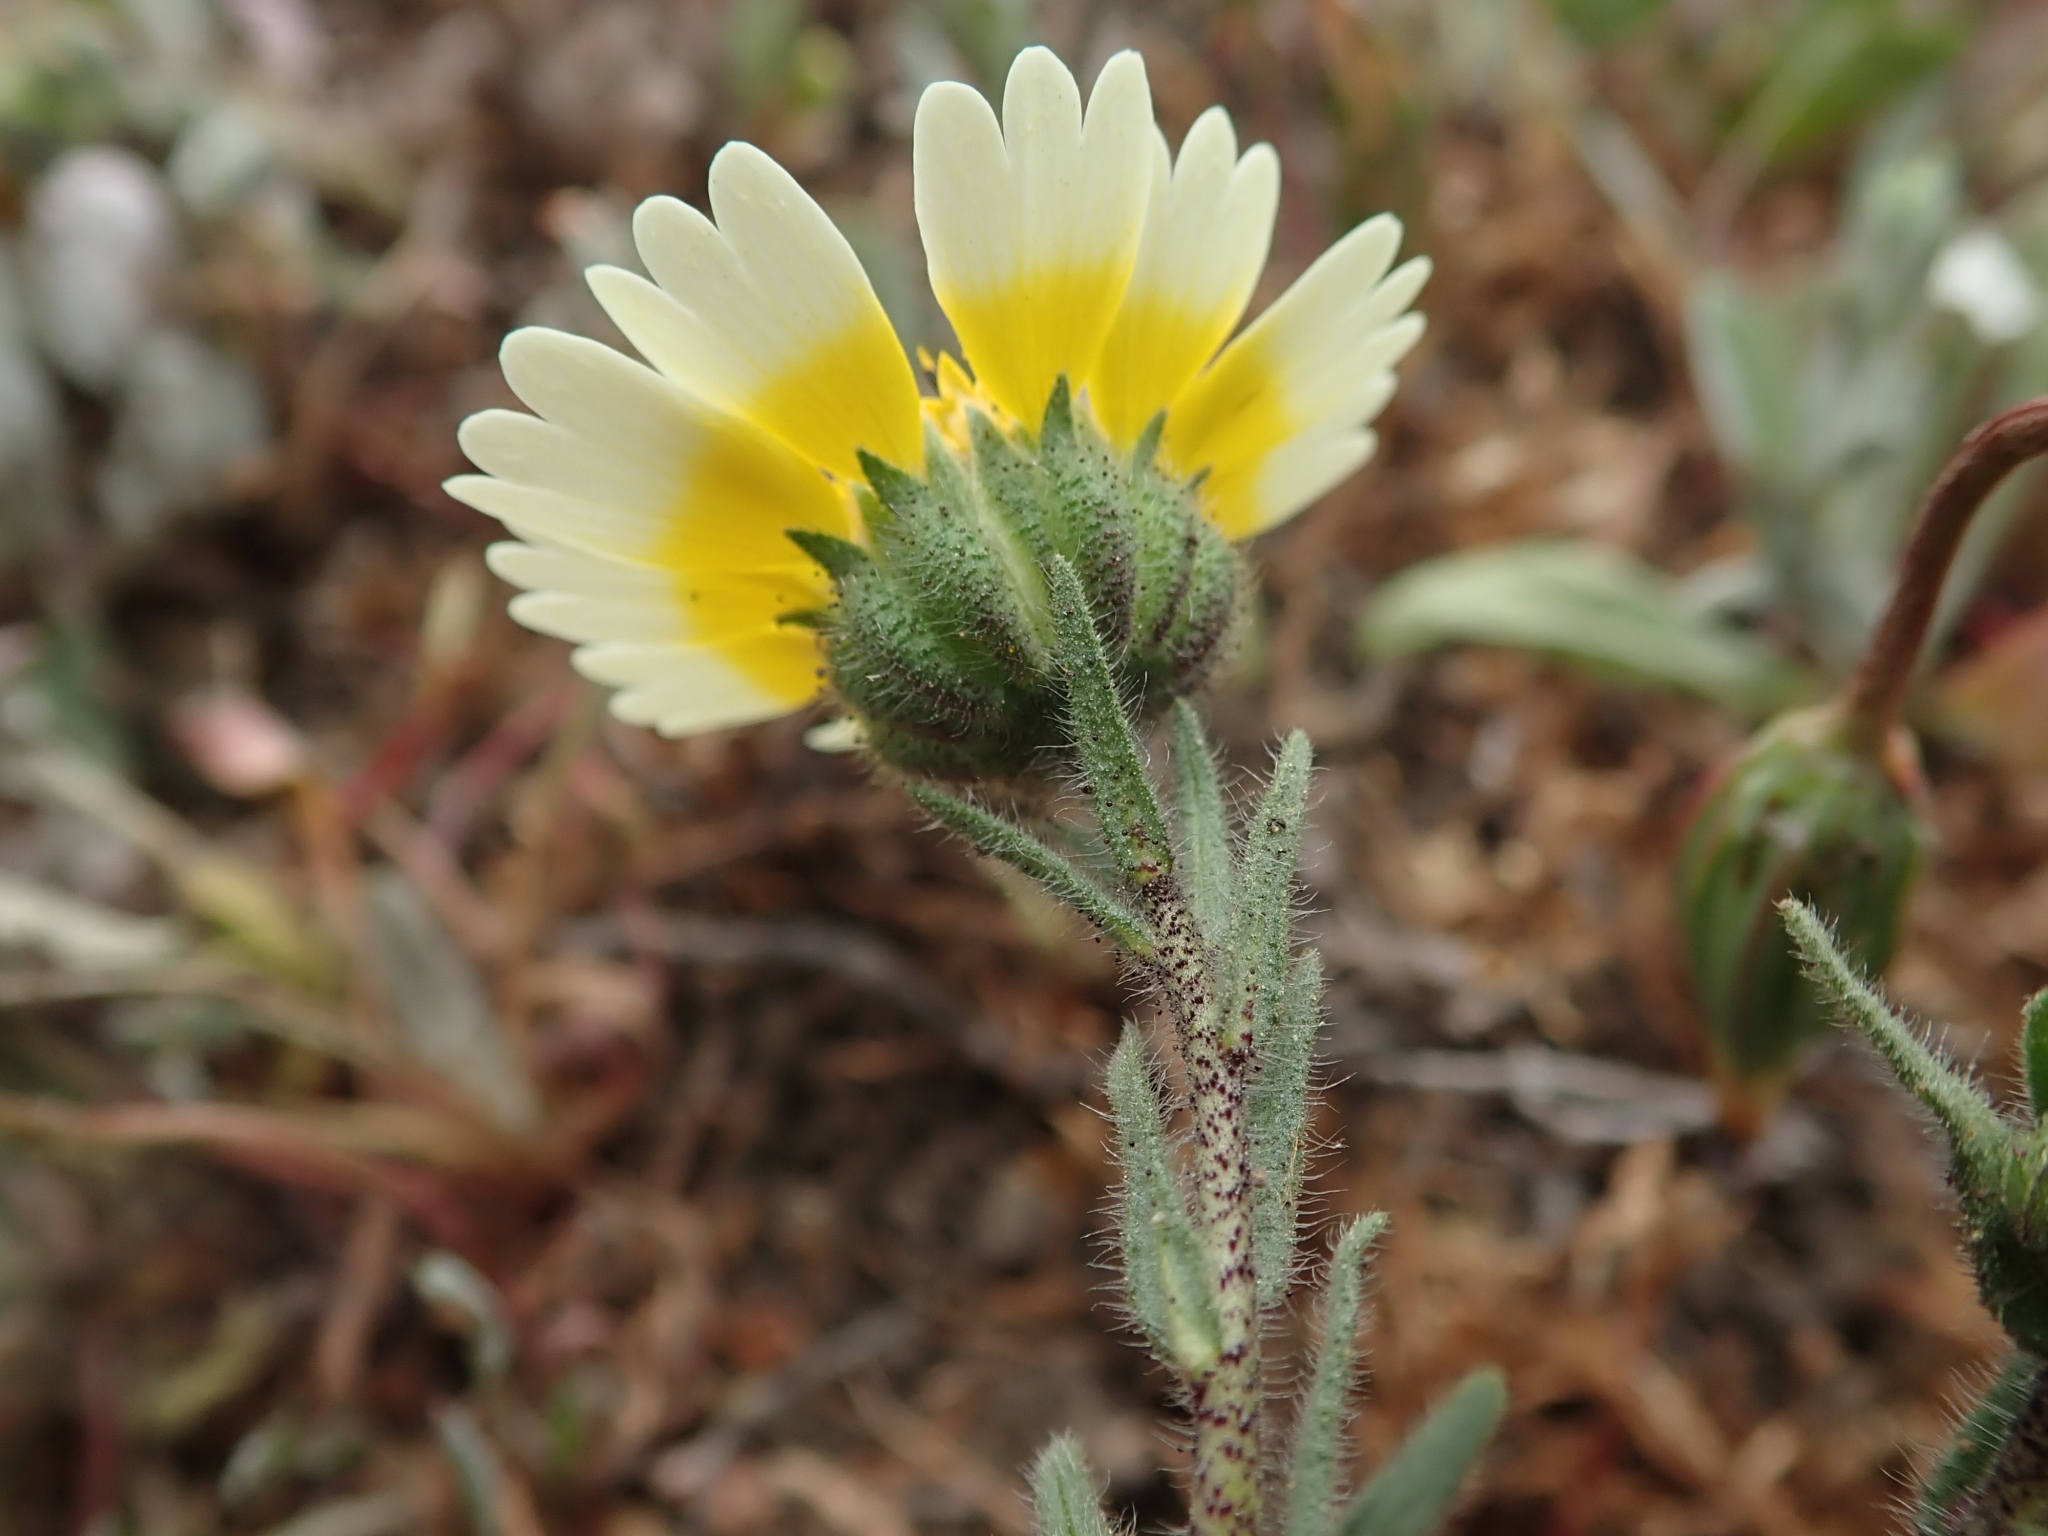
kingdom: Plantae
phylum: Tracheophyta
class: Magnoliopsida
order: Asterales
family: Asteraceae
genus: Layia
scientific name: Layia gaillardioides
